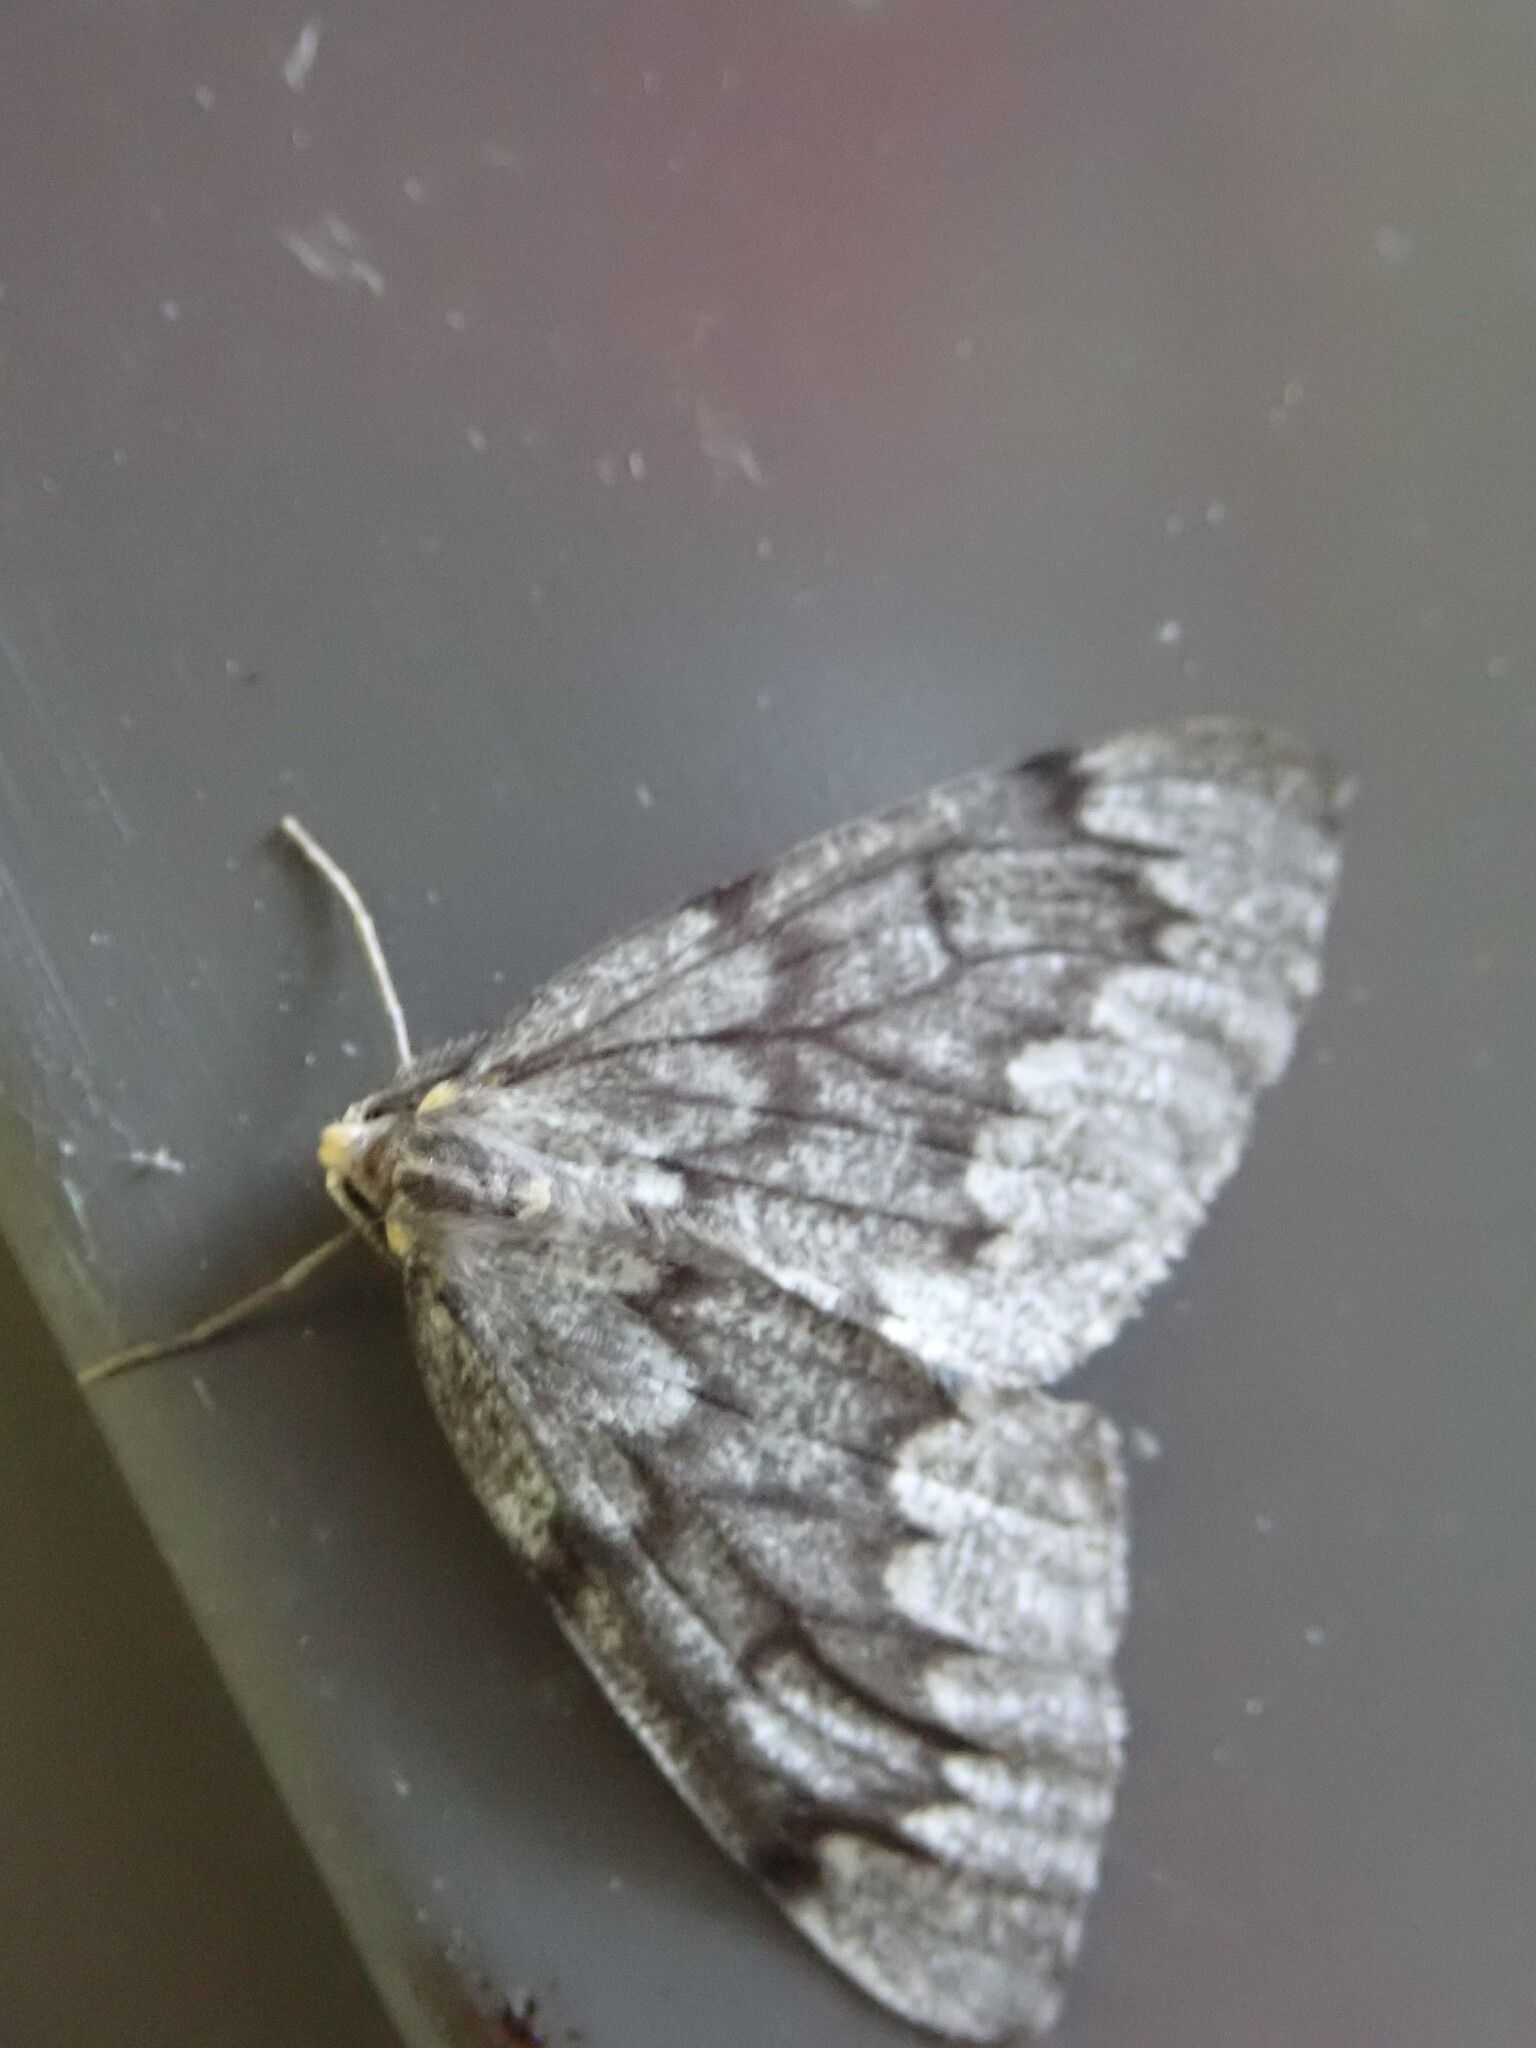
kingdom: Animalia
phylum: Arthropoda
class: Insecta
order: Lepidoptera
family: Geometridae
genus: Nepytia
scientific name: Nepytia canosaria
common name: False hemlock looper
